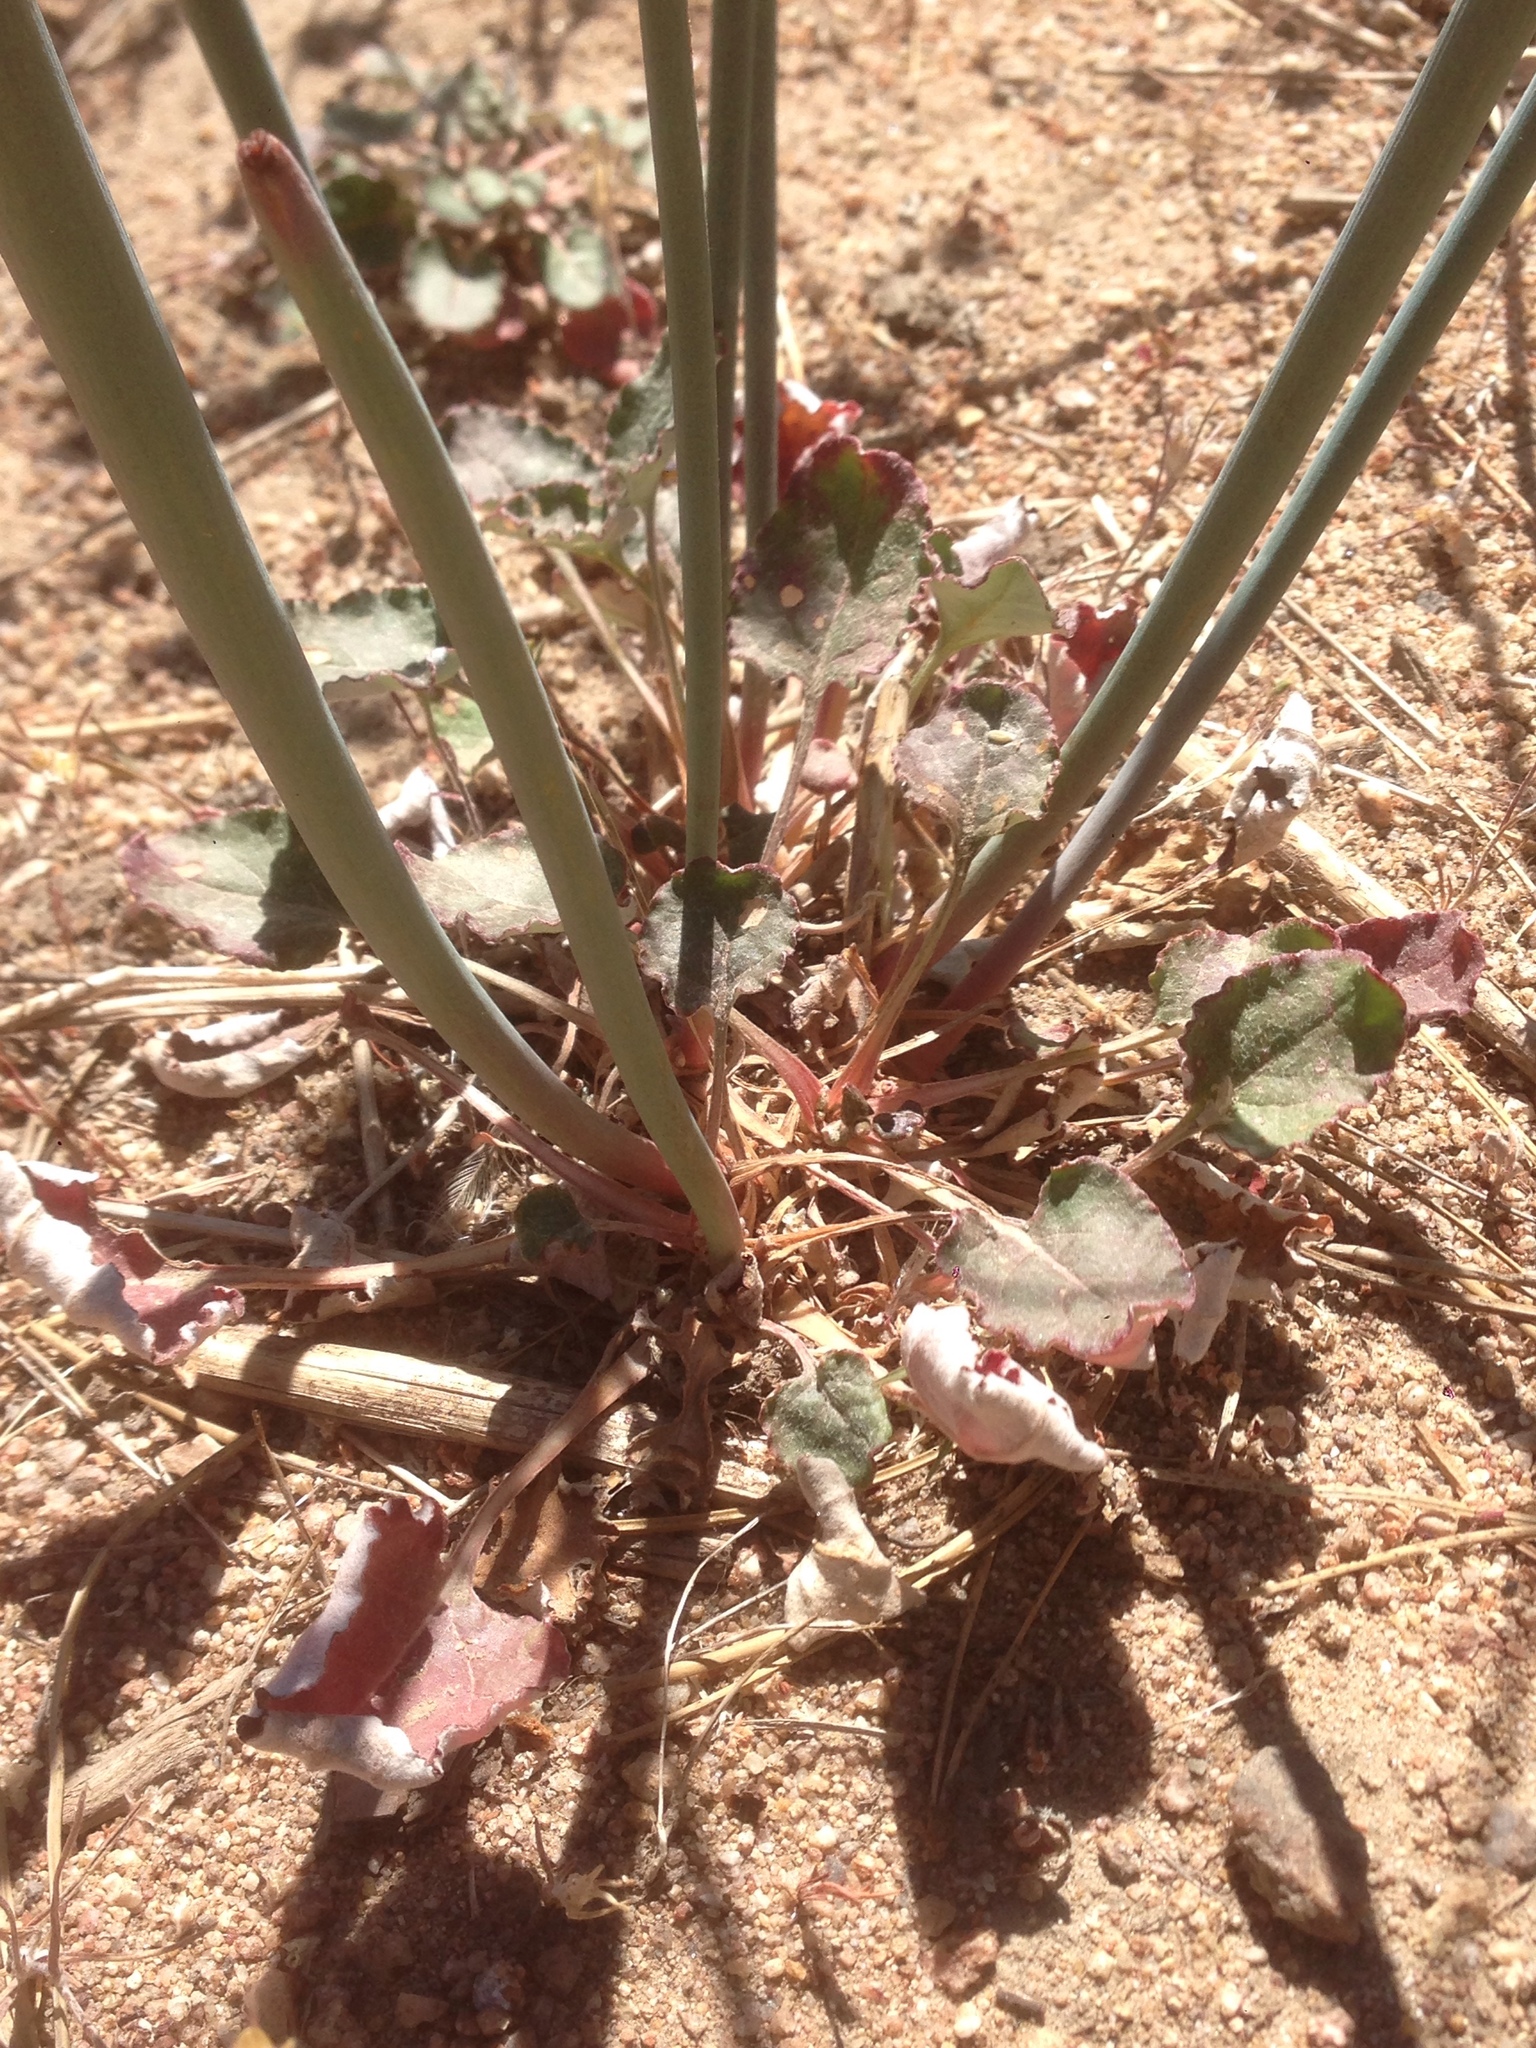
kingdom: Plantae
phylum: Tracheophyta
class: Magnoliopsida
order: Caryophyllales
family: Polygonaceae
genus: Eriogonum
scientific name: Eriogonum nudum
